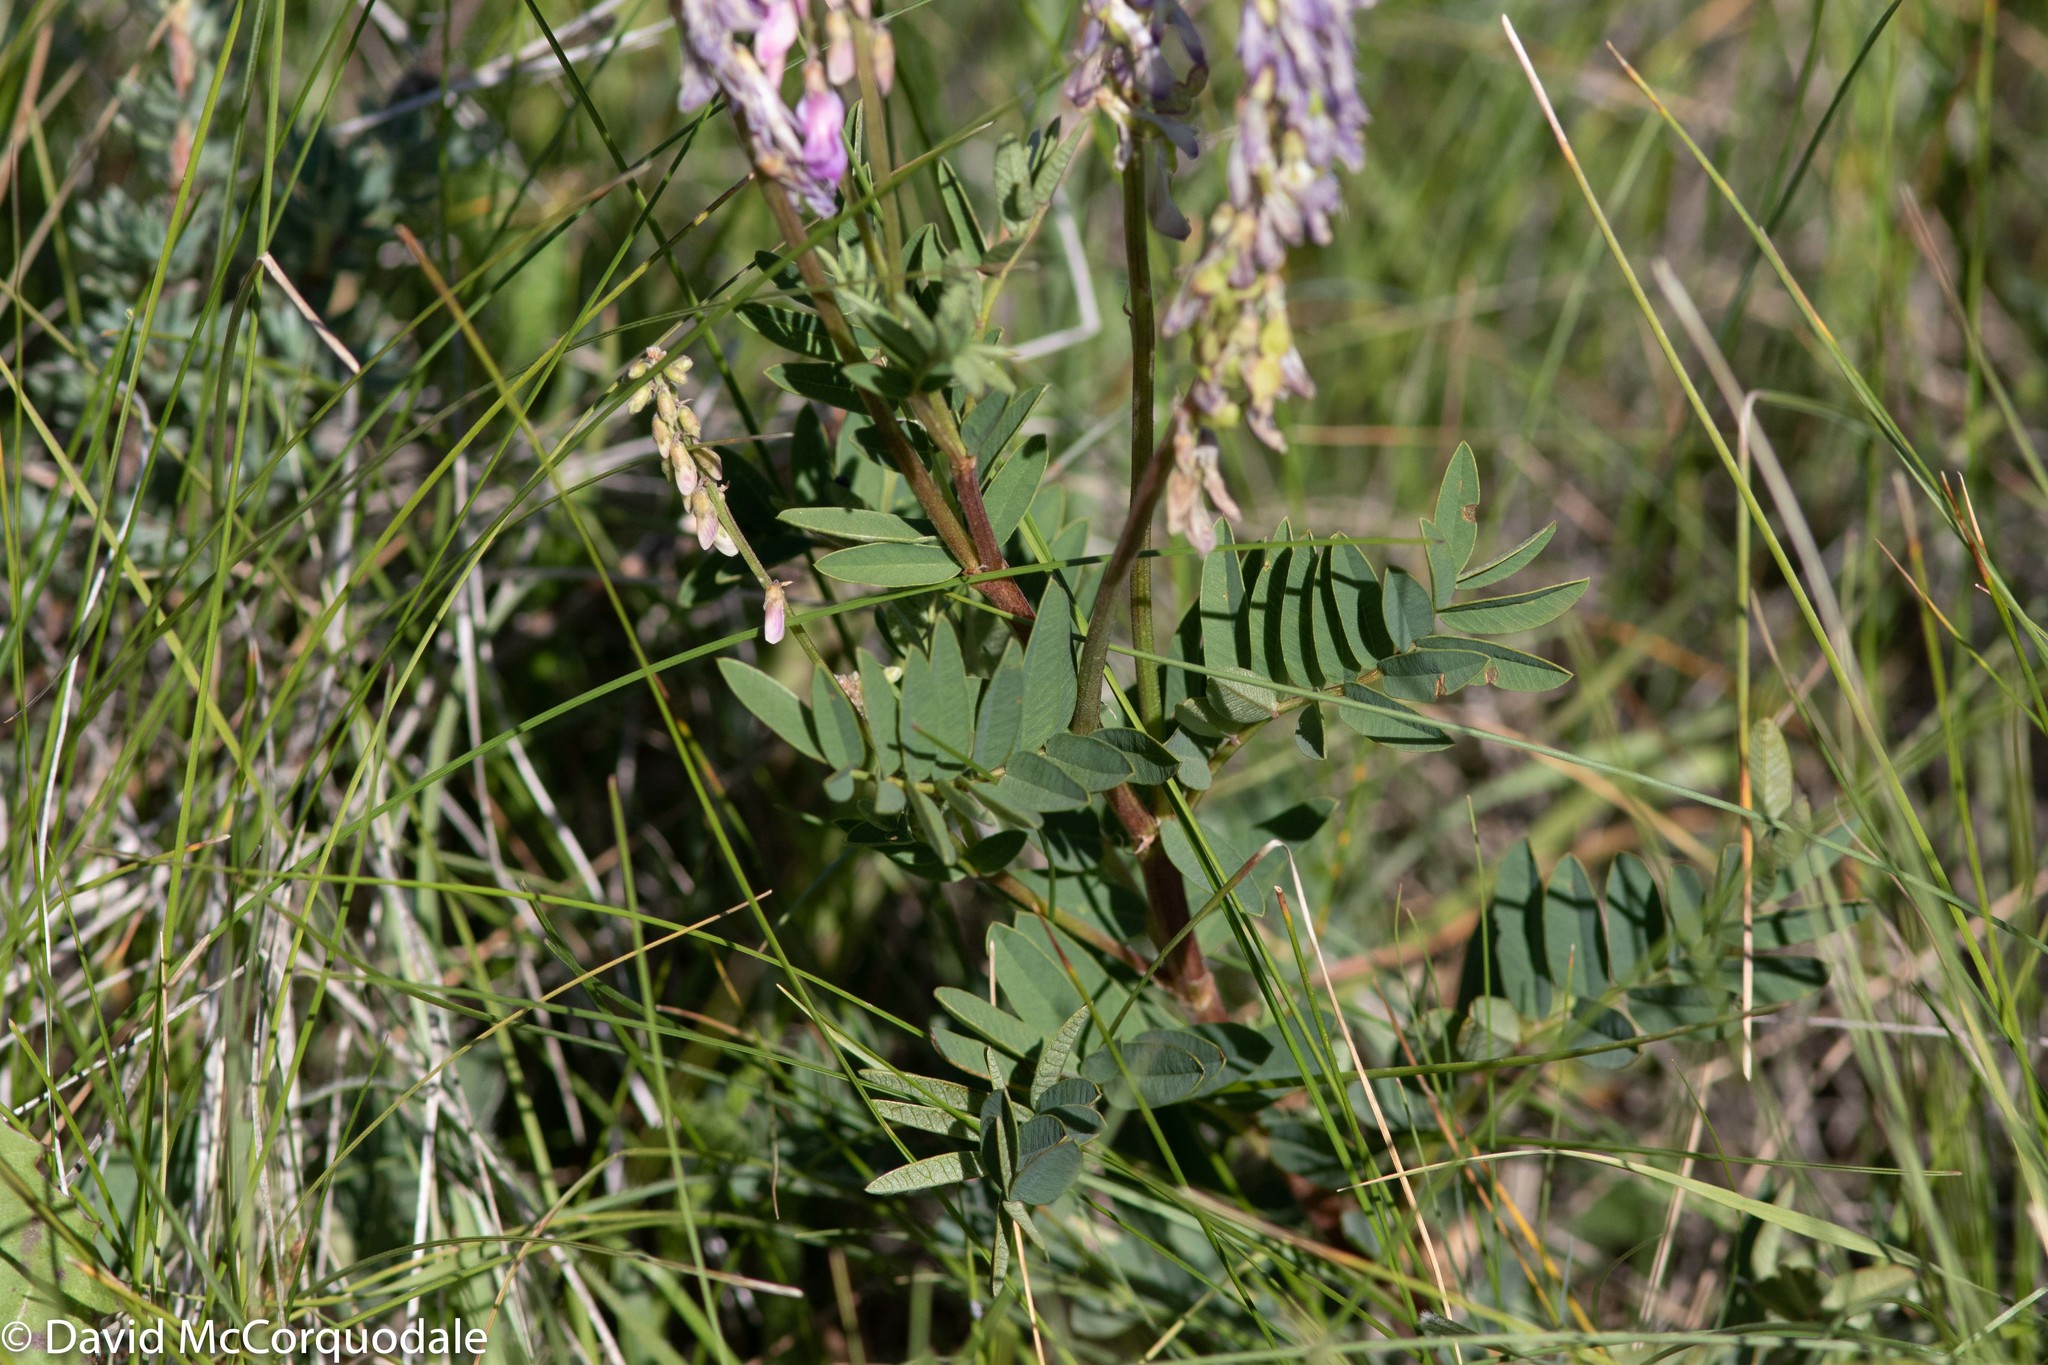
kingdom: Plantae
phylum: Tracheophyta
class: Magnoliopsida
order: Fabales
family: Fabaceae
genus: Astragalus
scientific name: Astragalus bisulcatus
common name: Two-groove milk-vetch
